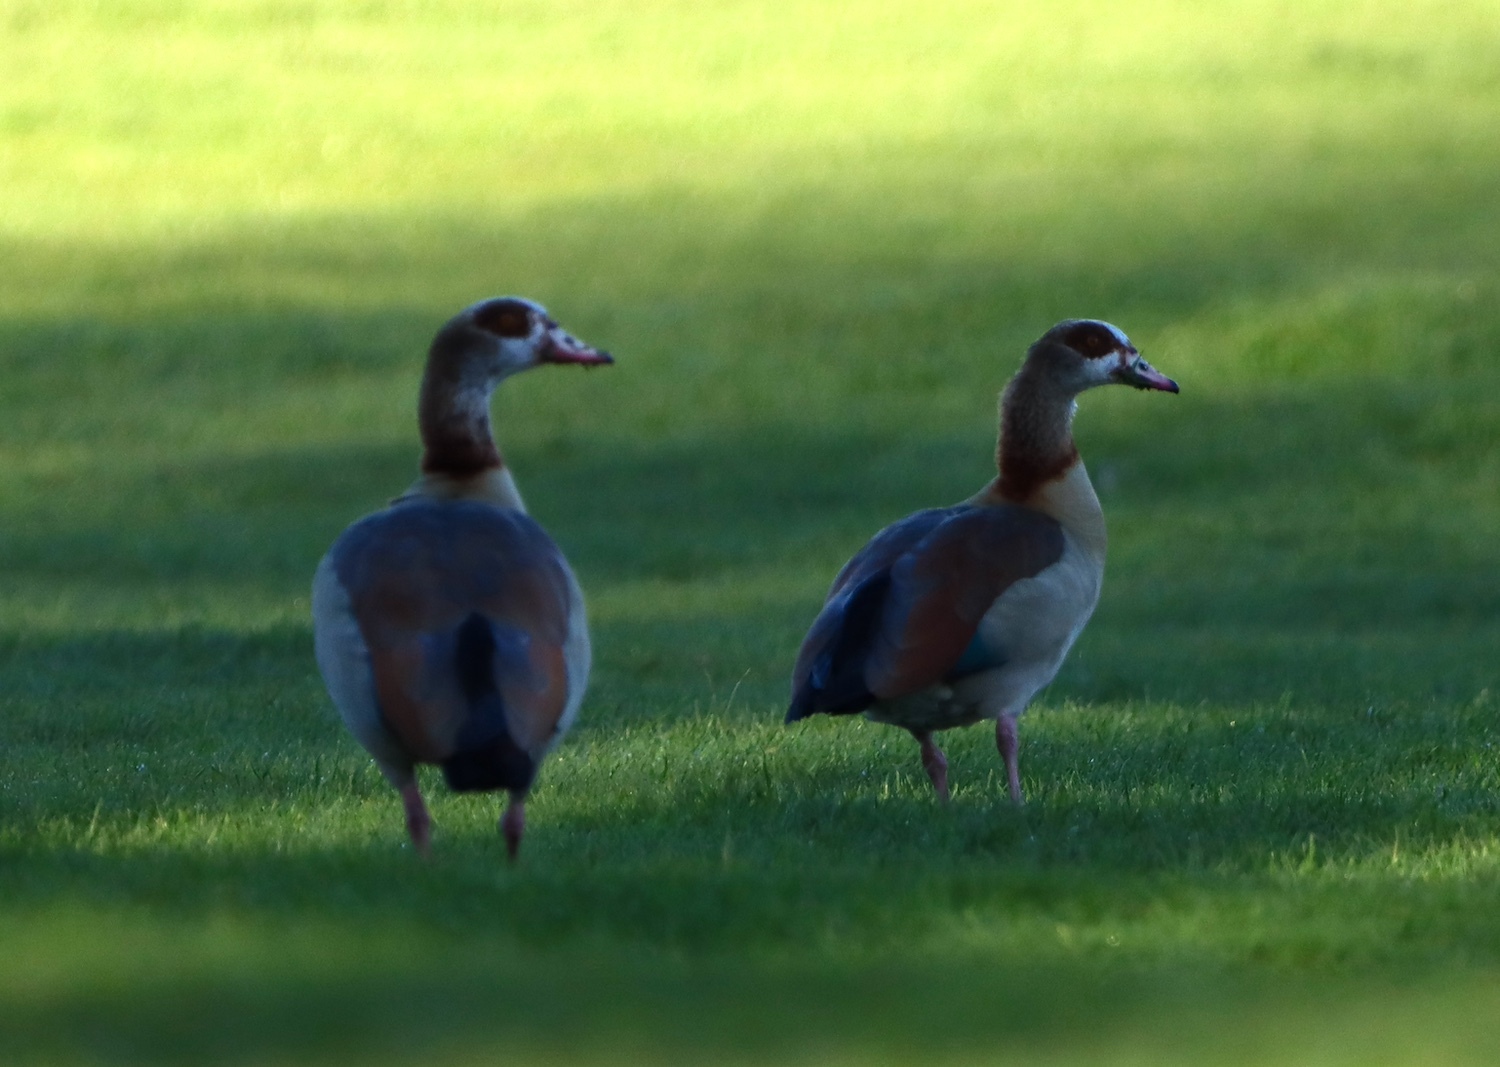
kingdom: Animalia
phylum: Chordata
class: Aves
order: Anseriformes
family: Anatidae
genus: Alopochen
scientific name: Alopochen aegyptiaca
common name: Egyptian goose
